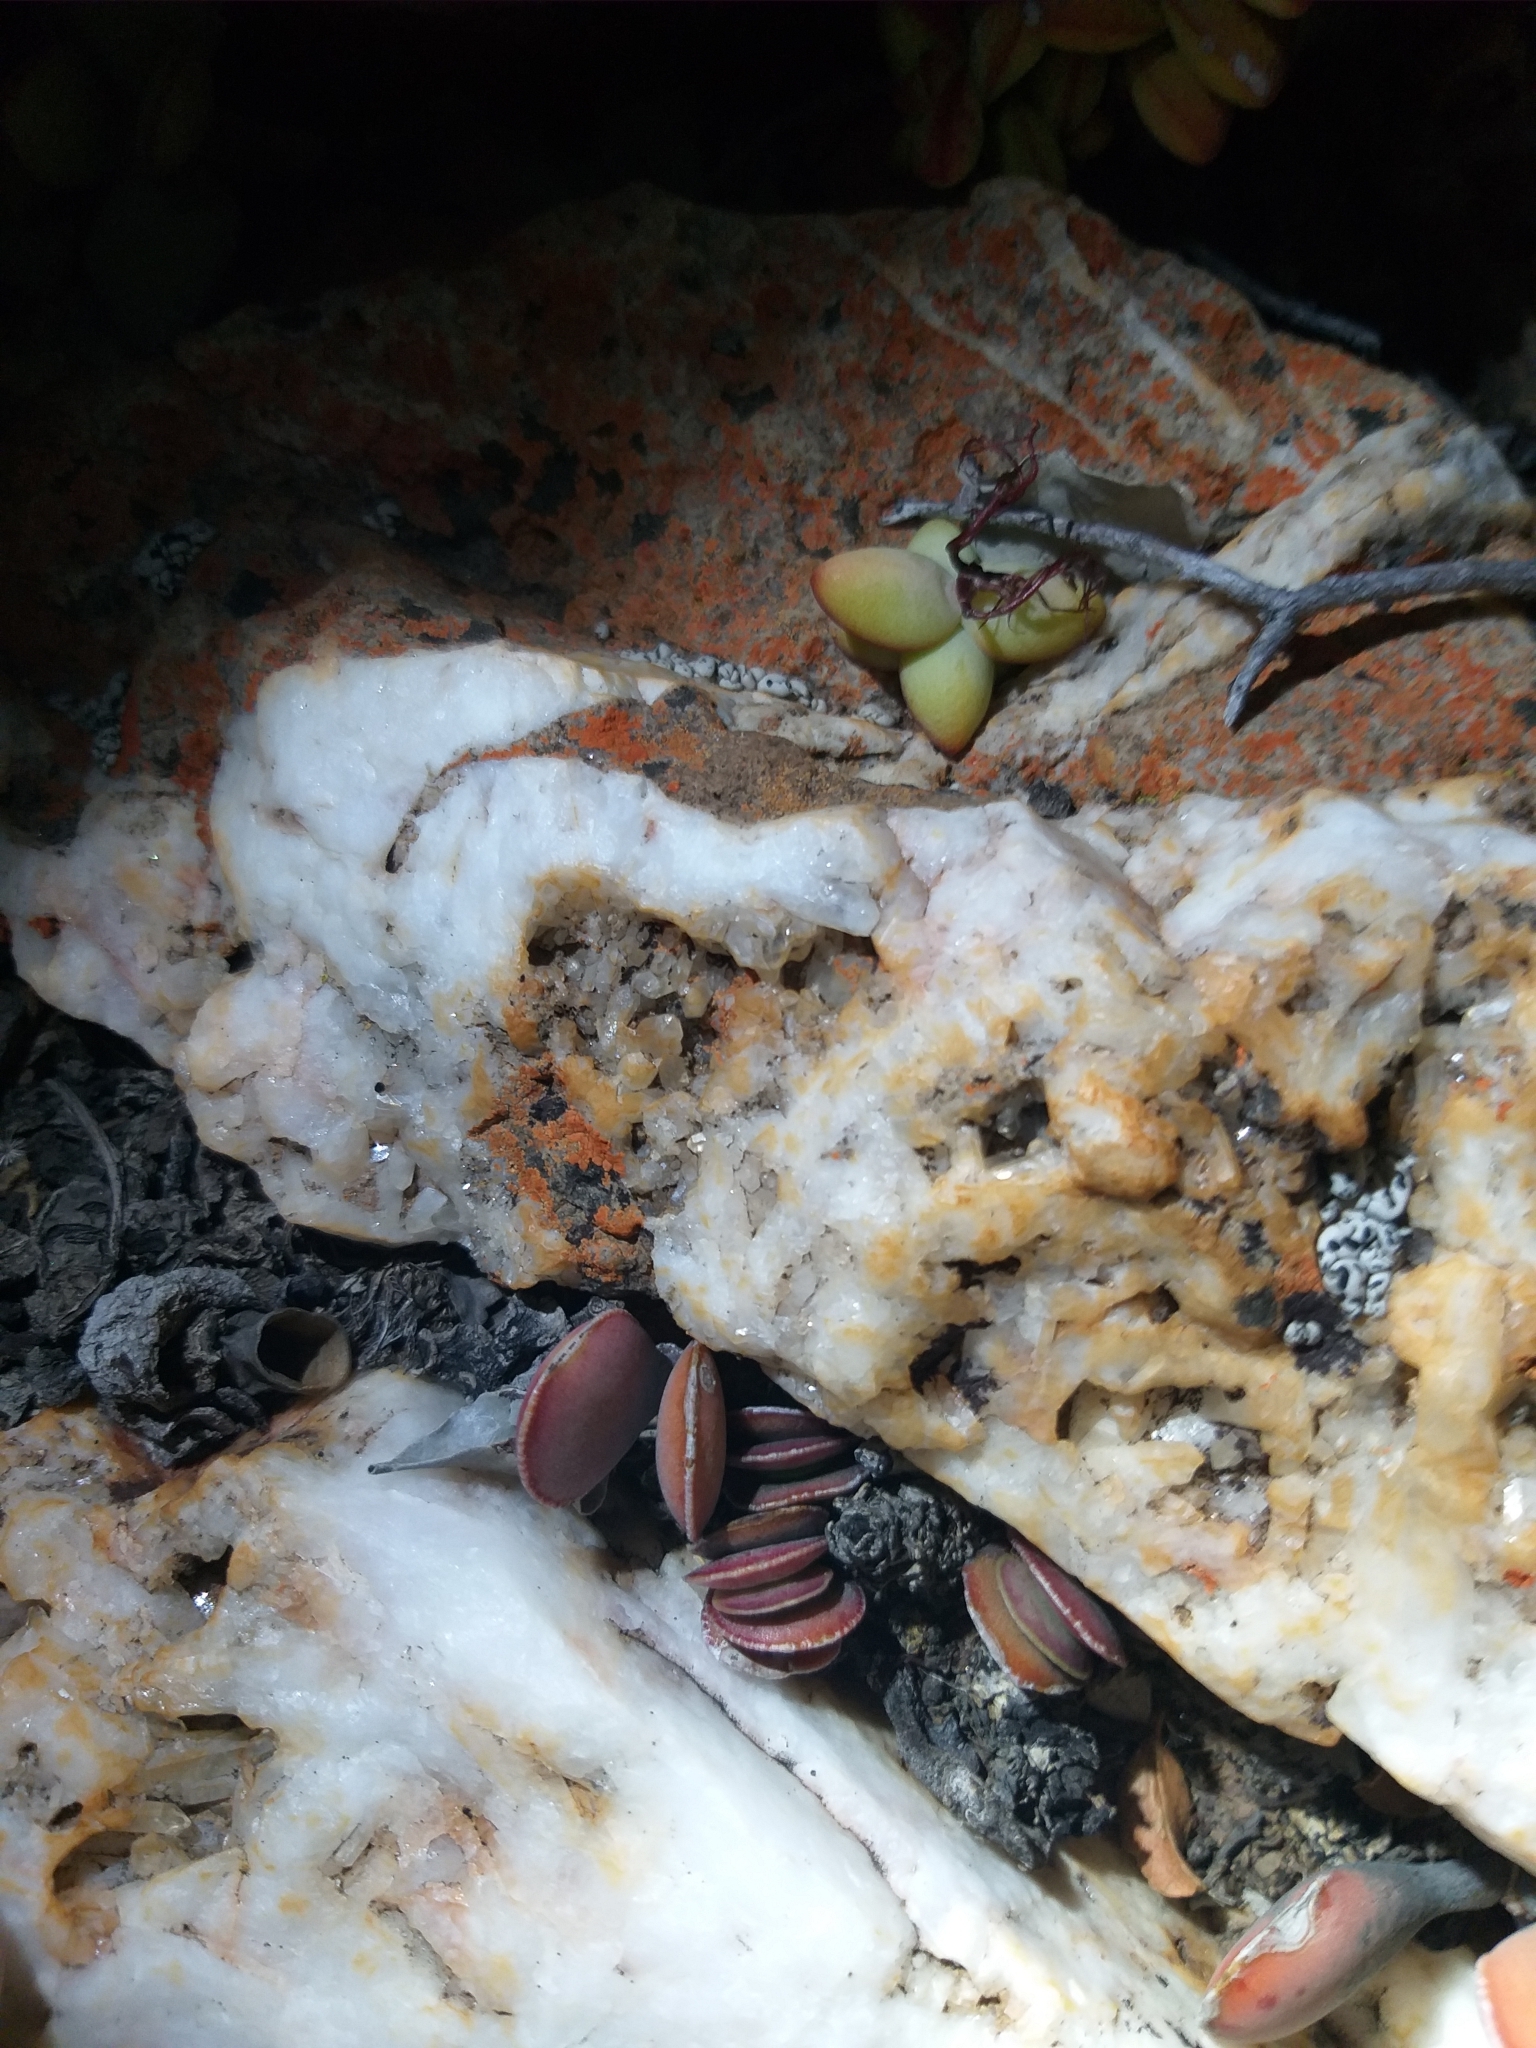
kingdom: Plantae
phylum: Tracheophyta
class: Magnoliopsida
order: Saxifragales
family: Crassulaceae
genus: Adromischus
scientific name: Adromischus triflorus
